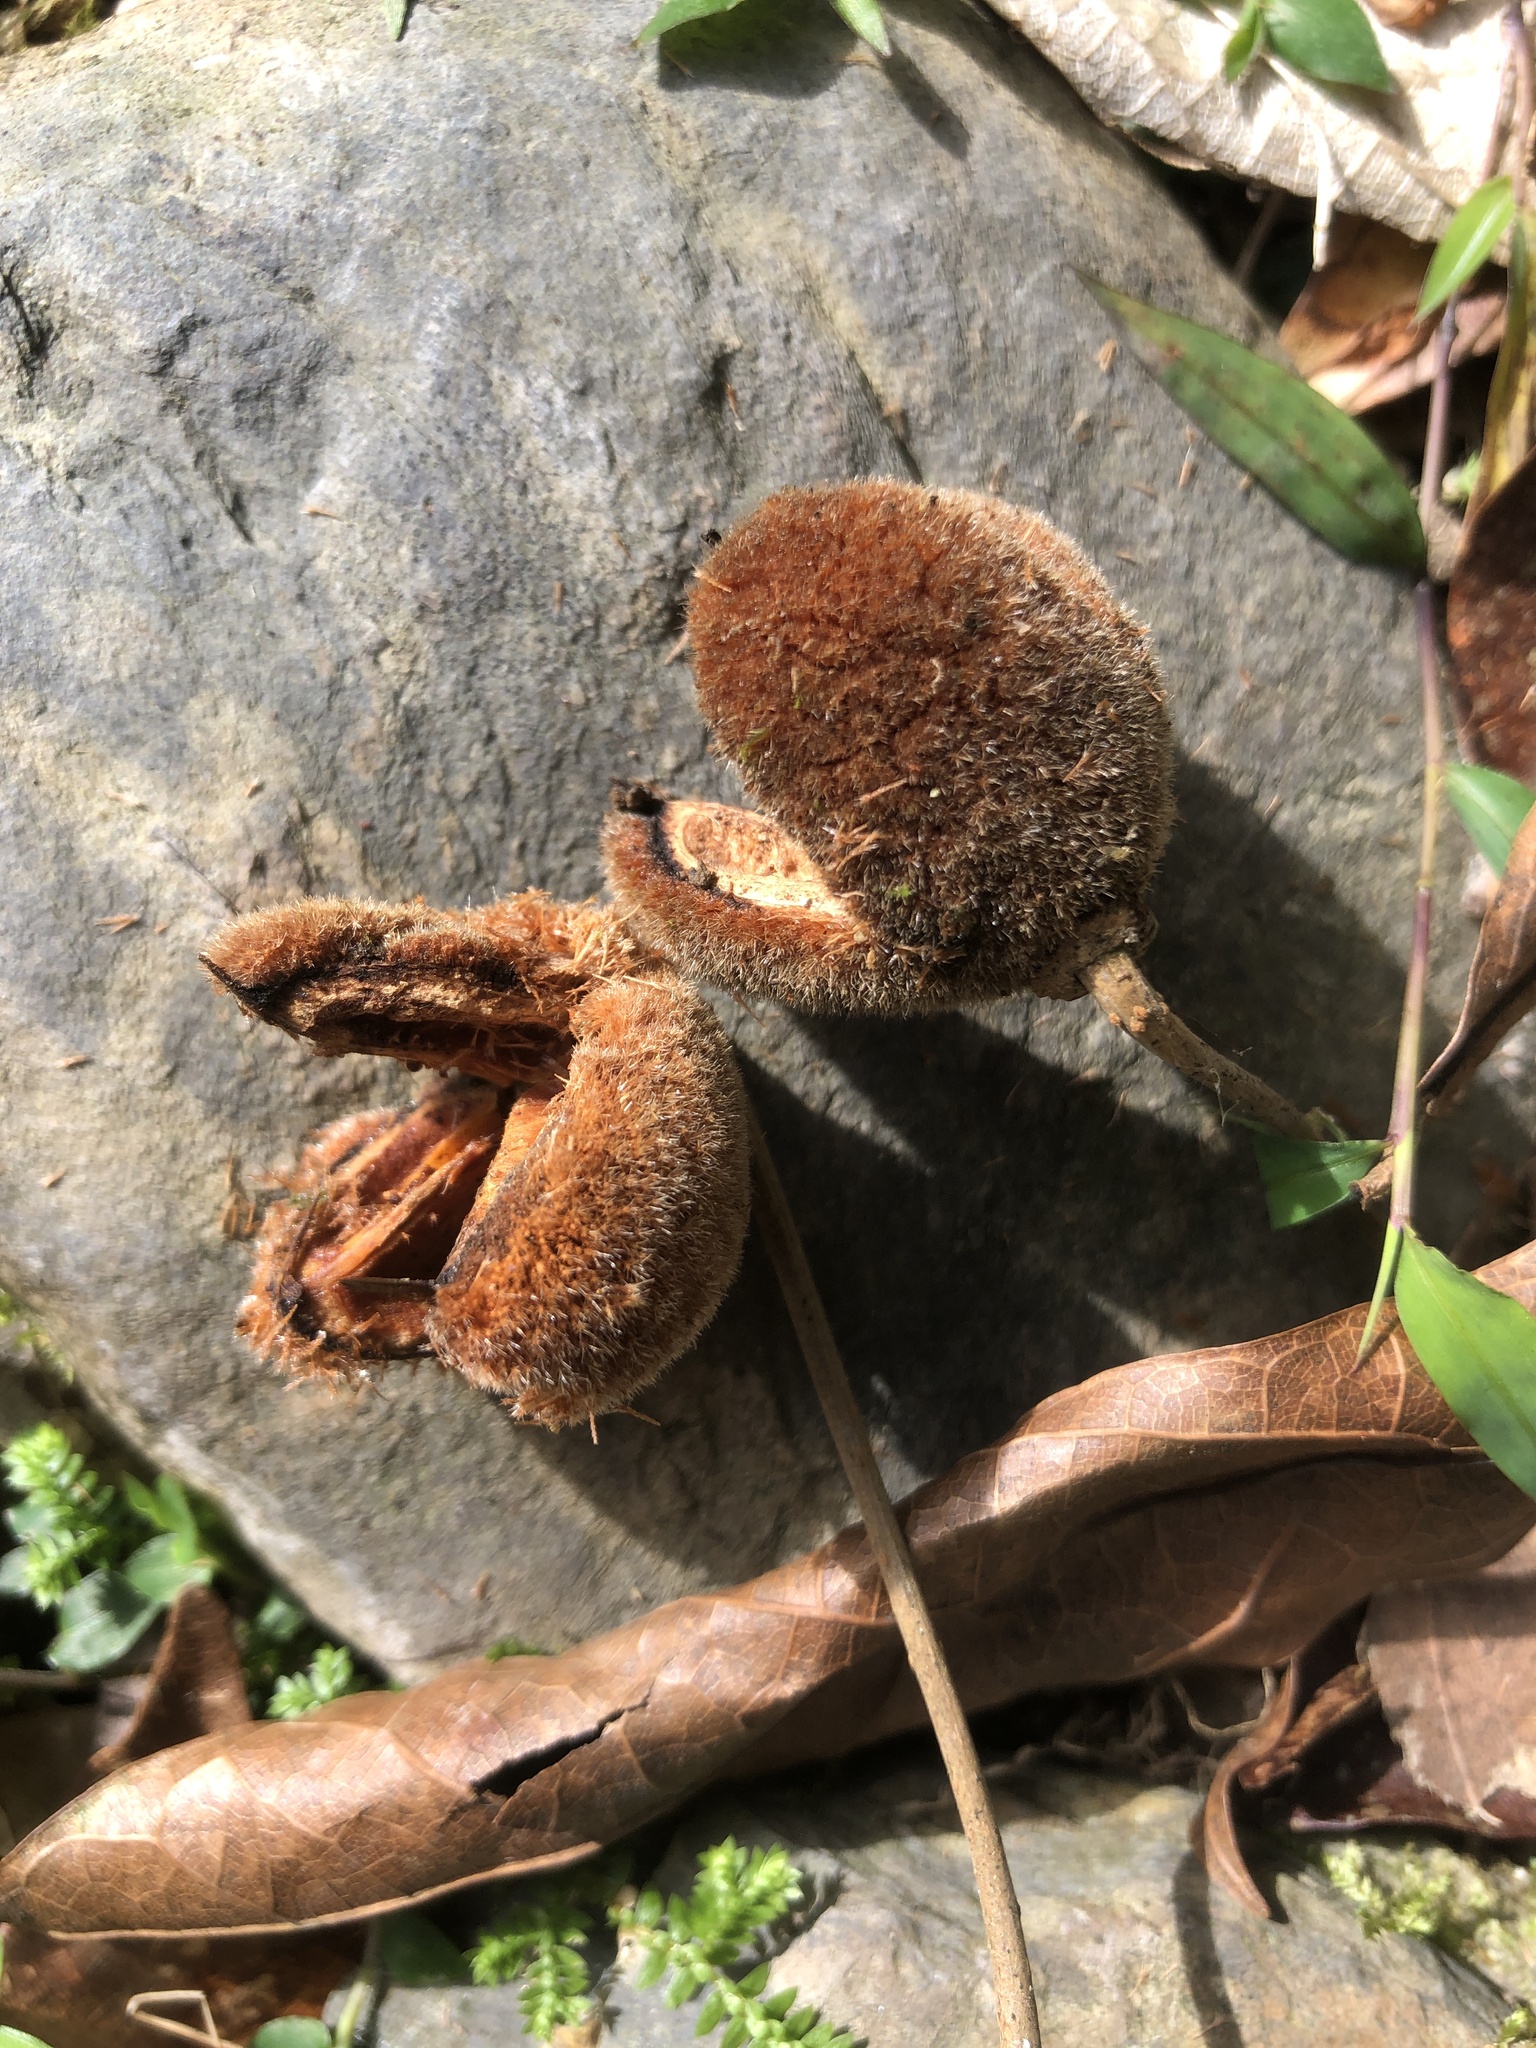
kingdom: Plantae
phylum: Tracheophyta
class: Magnoliopsida
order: Oxalidales
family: Elaeocarpaceae
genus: Sloanea
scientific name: Sloanea dasycarpa
